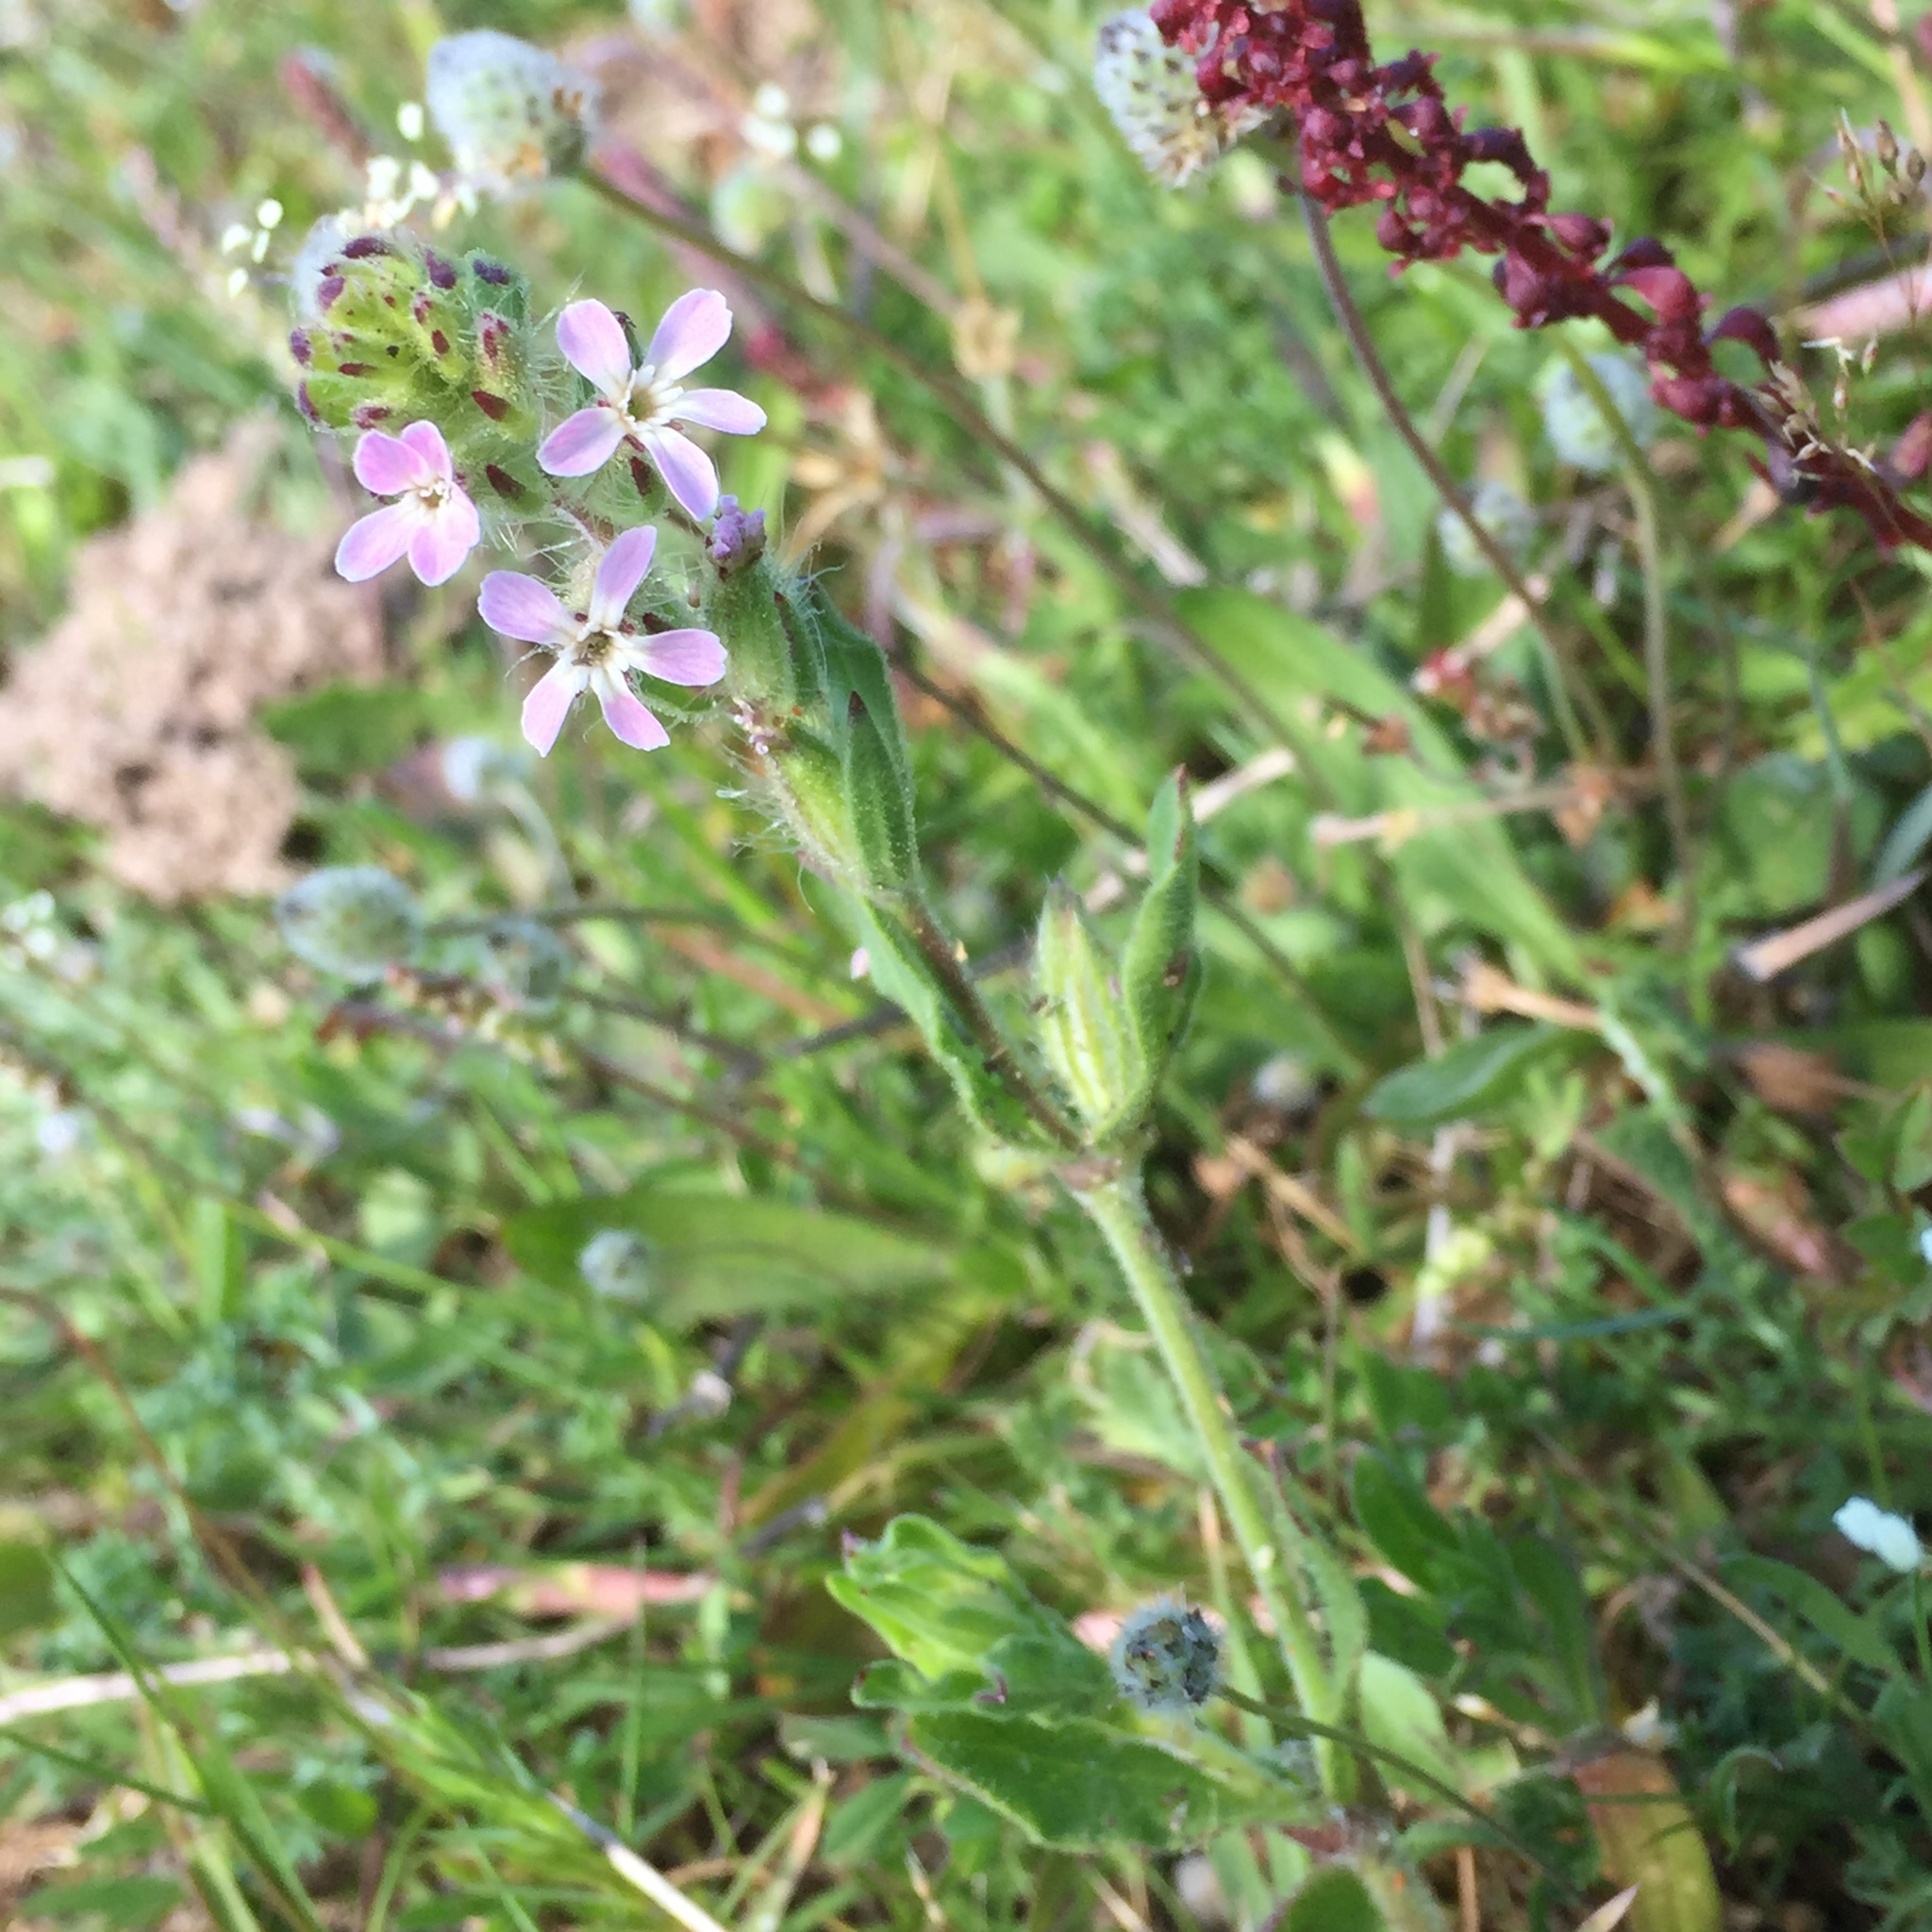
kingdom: Plantae
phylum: Tracheophyta
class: Magnoliopsida
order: Caryophyllales
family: Caryophyllaceae
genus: Silene
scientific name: Silene gallica
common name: Small-flowered catchfly
